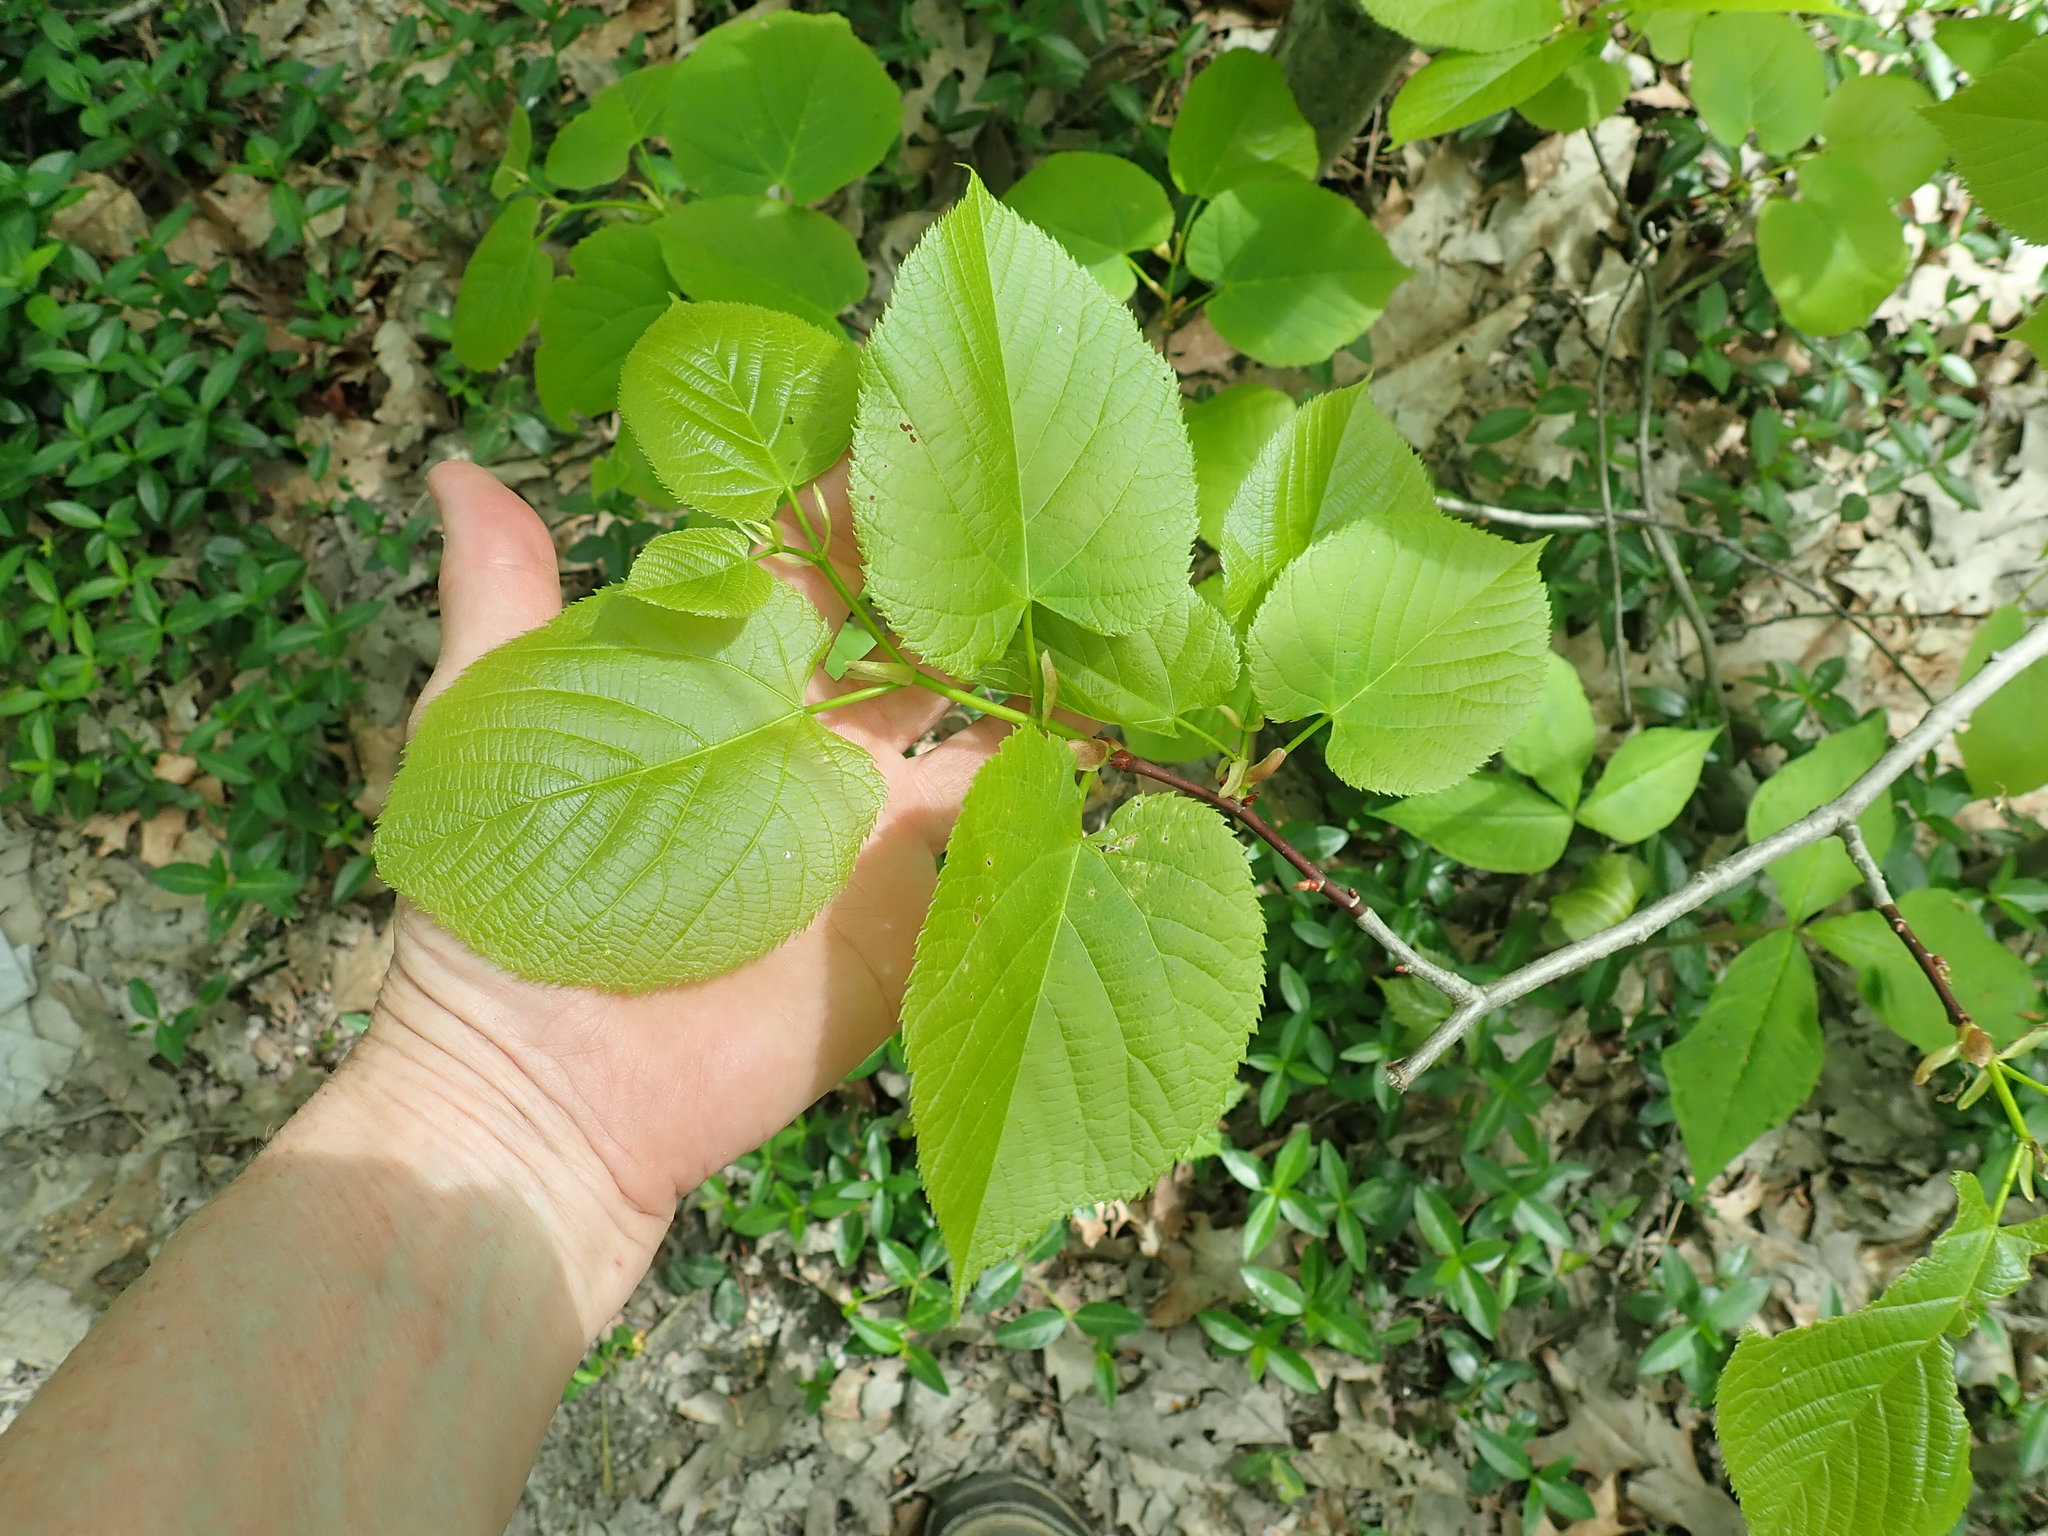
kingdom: Plantae
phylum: Tracheophyta
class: Magnoliopsida
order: Malvales
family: Malvaceae
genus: Tilia
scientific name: Tilia americana
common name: Basswood
